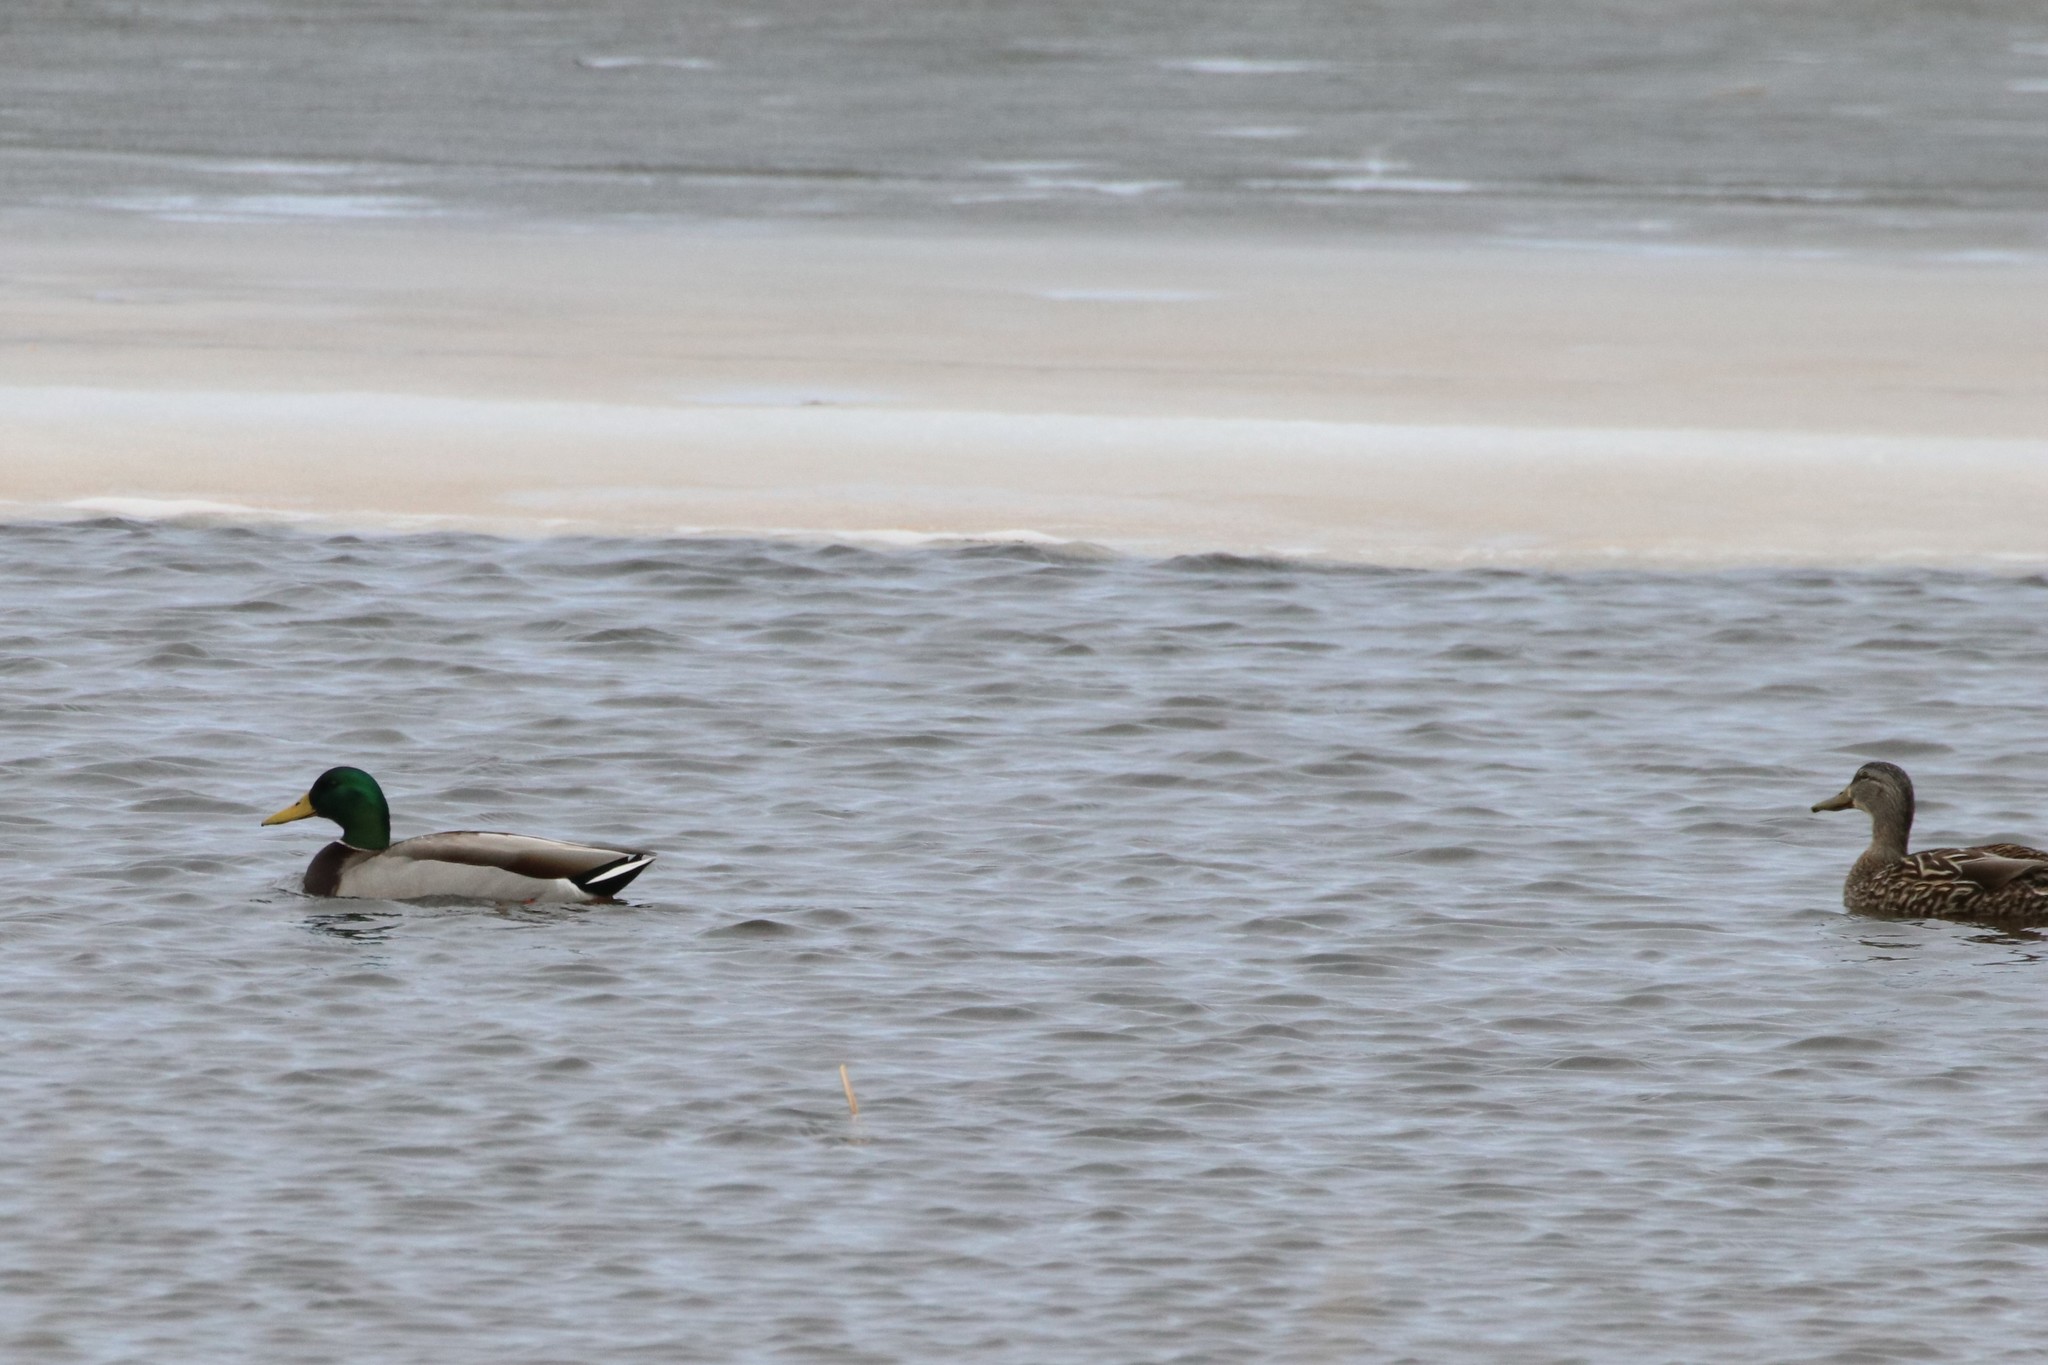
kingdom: Animalia
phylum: Chordata
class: Aves
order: Anseriformes
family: Anatidae
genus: Anas
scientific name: Anas platyrhynchos
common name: Mallard
